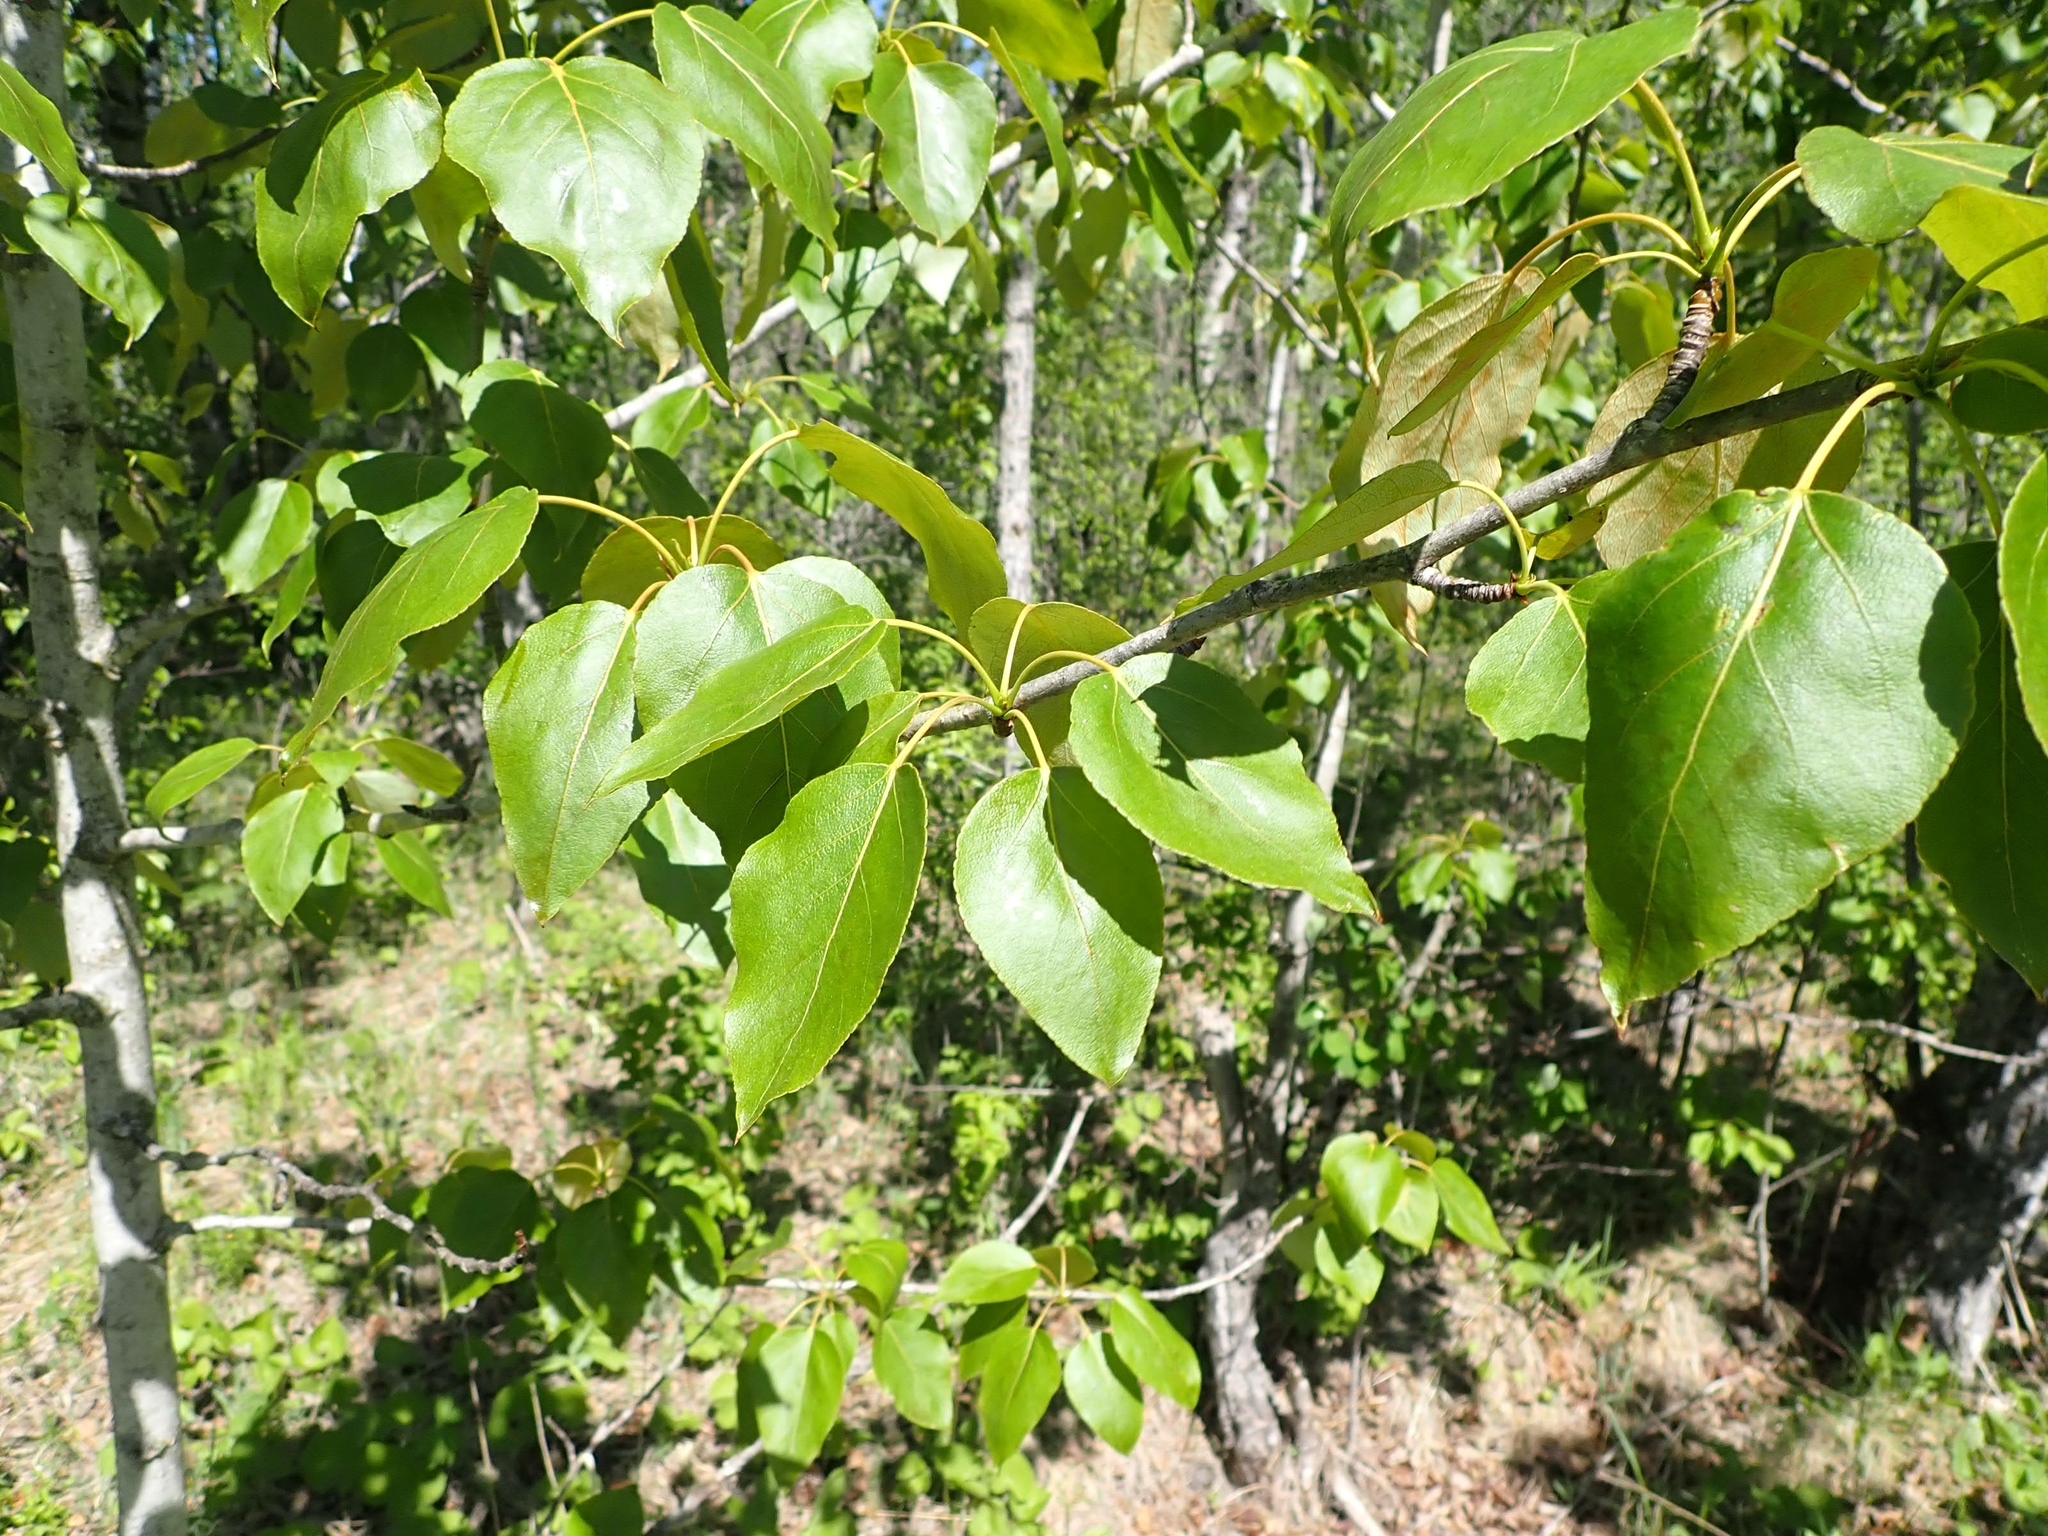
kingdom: Plantae
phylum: Tracheophyta
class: Magnoliopsida
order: Malpighiales
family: Salicaceae
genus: Populus
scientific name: Populus balsamifera
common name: Balsam poplar
